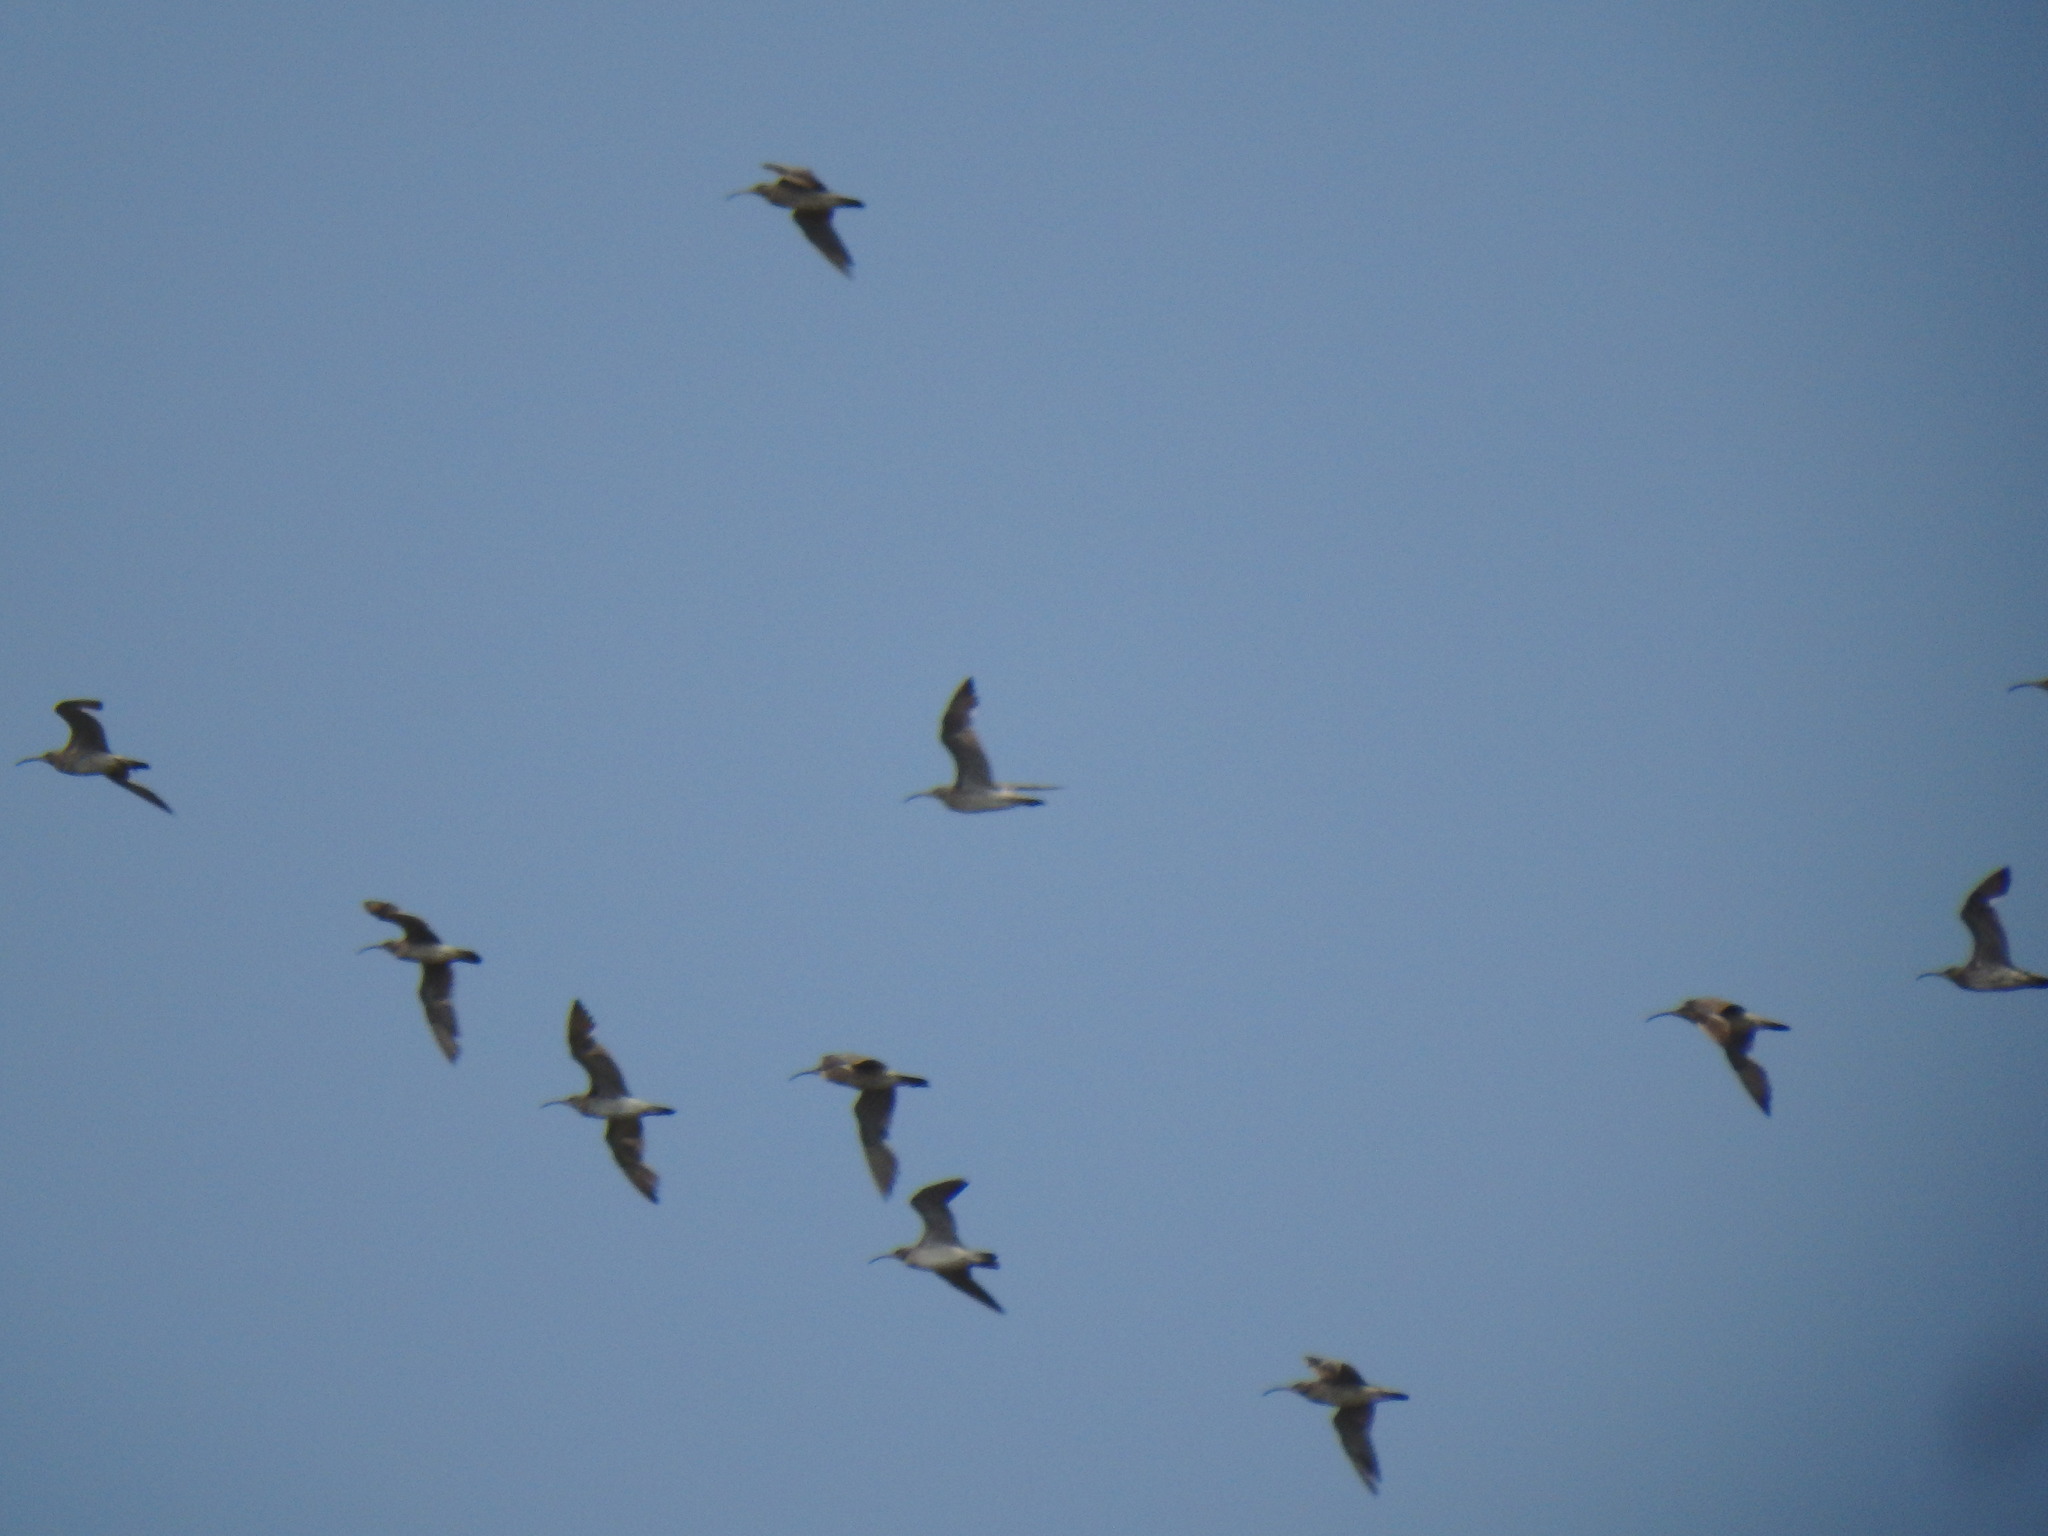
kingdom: Animalia
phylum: Chordata
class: Aves
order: Charadriiformes
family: Scolopacidae
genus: Numenius
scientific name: Numenius phaeopus
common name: Whimbrel
